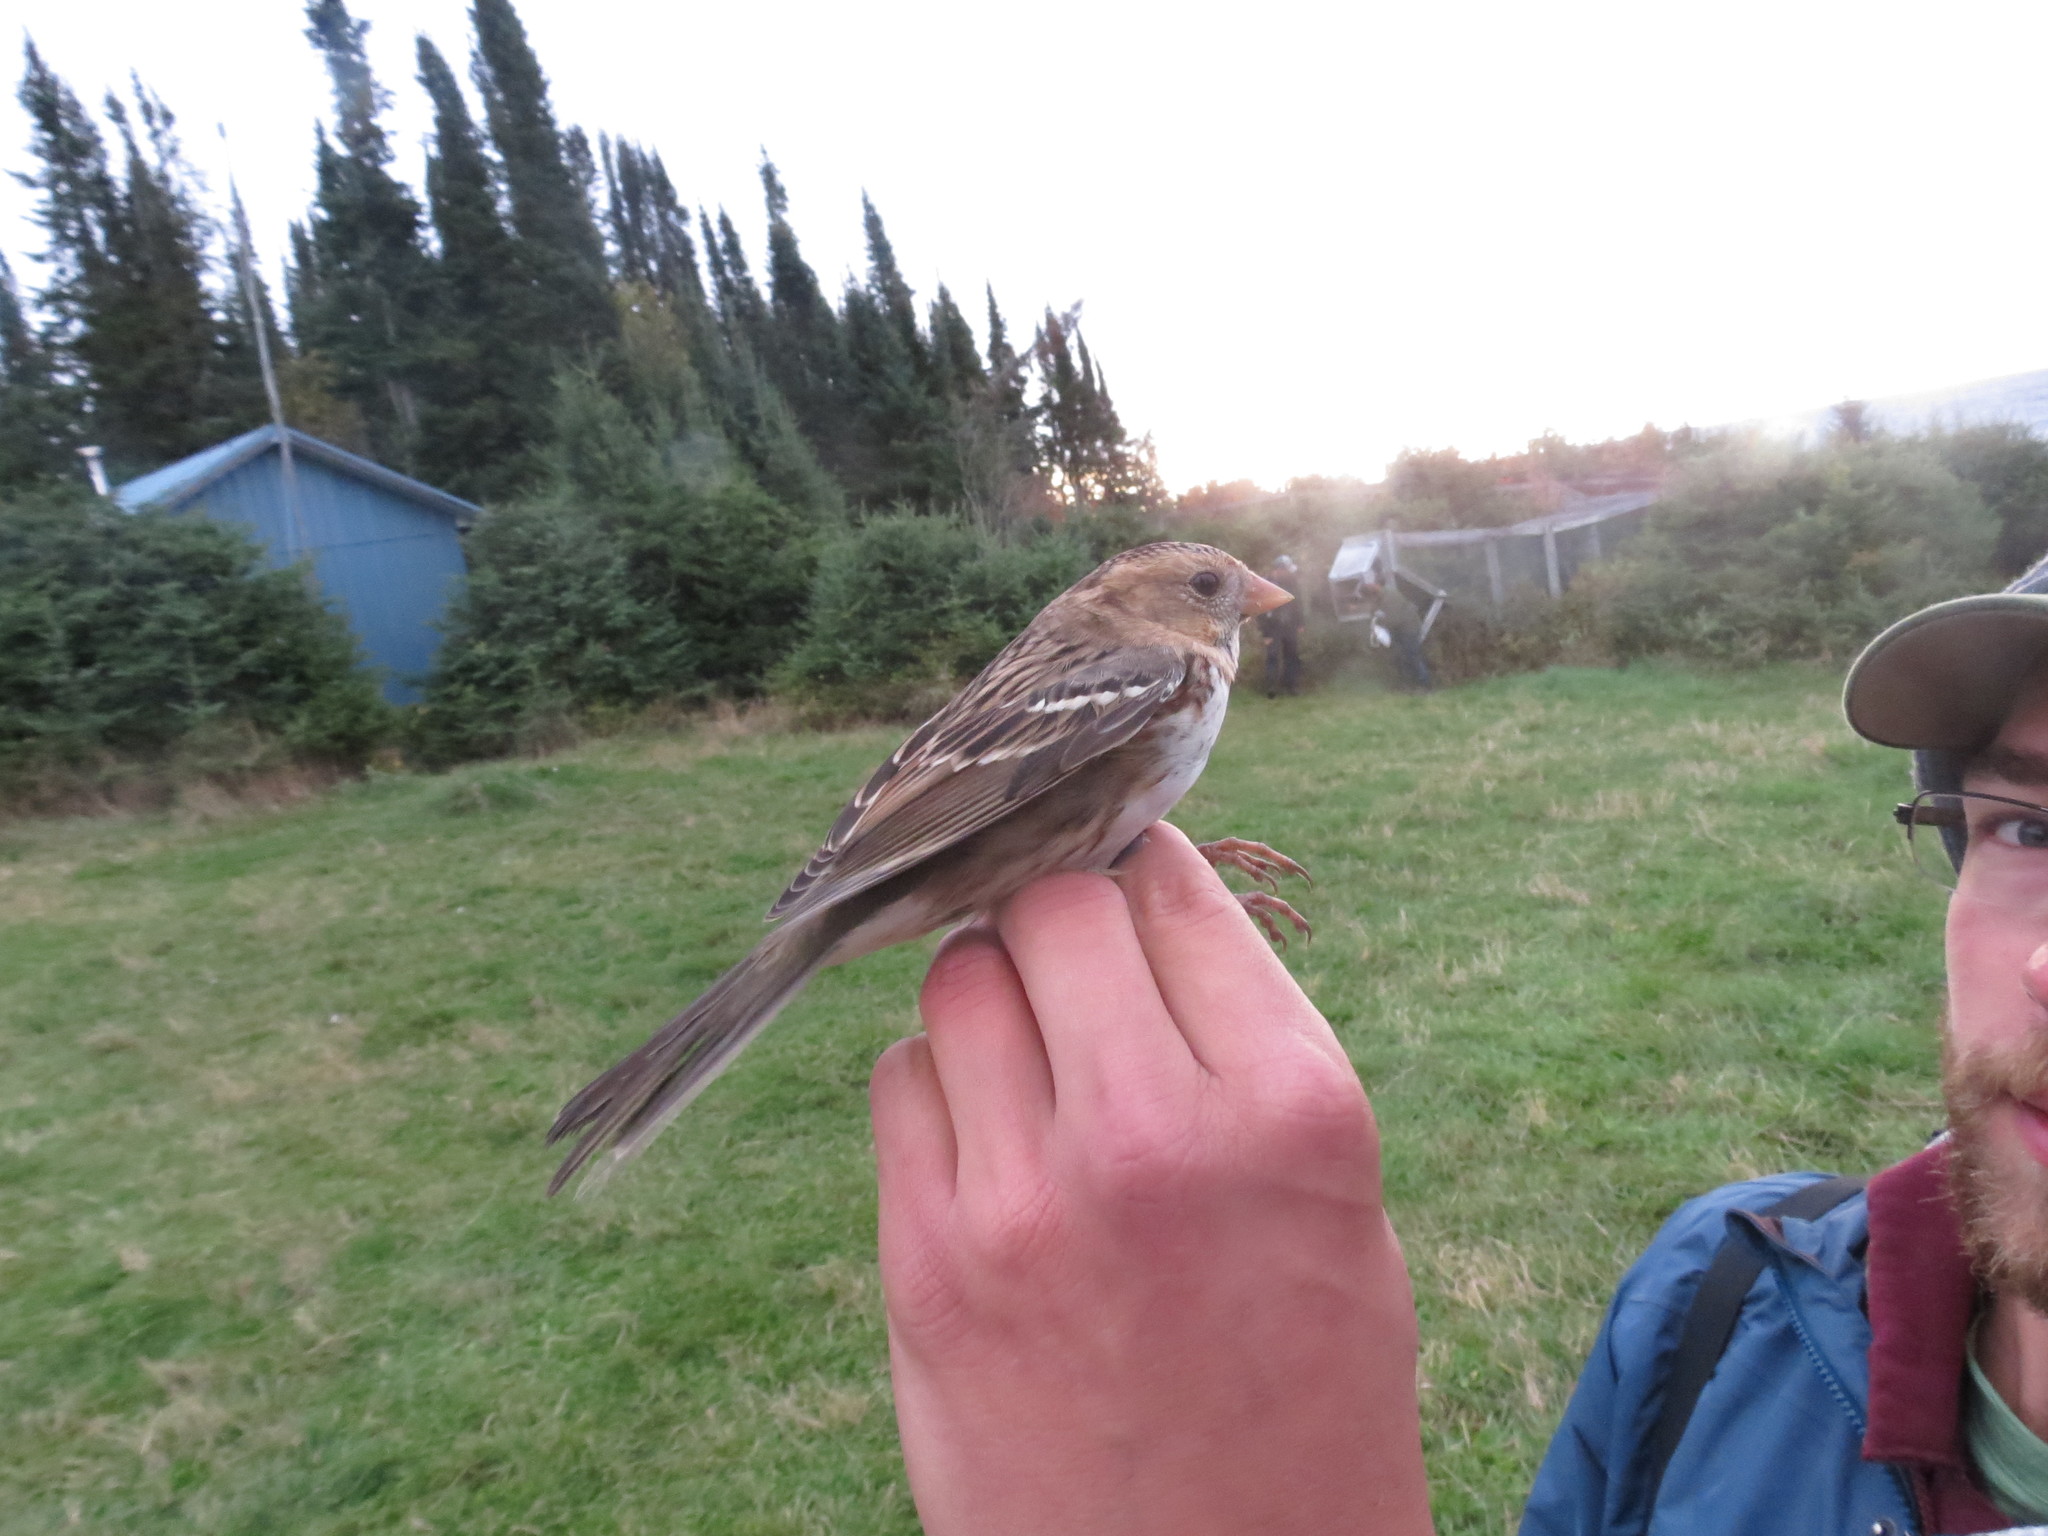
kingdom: Animalia
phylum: Chordata
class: Aves
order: Passeriformes
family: Passerellidae
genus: Zonotrichia
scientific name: Zonotrichia querula
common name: Harris's sparrow
